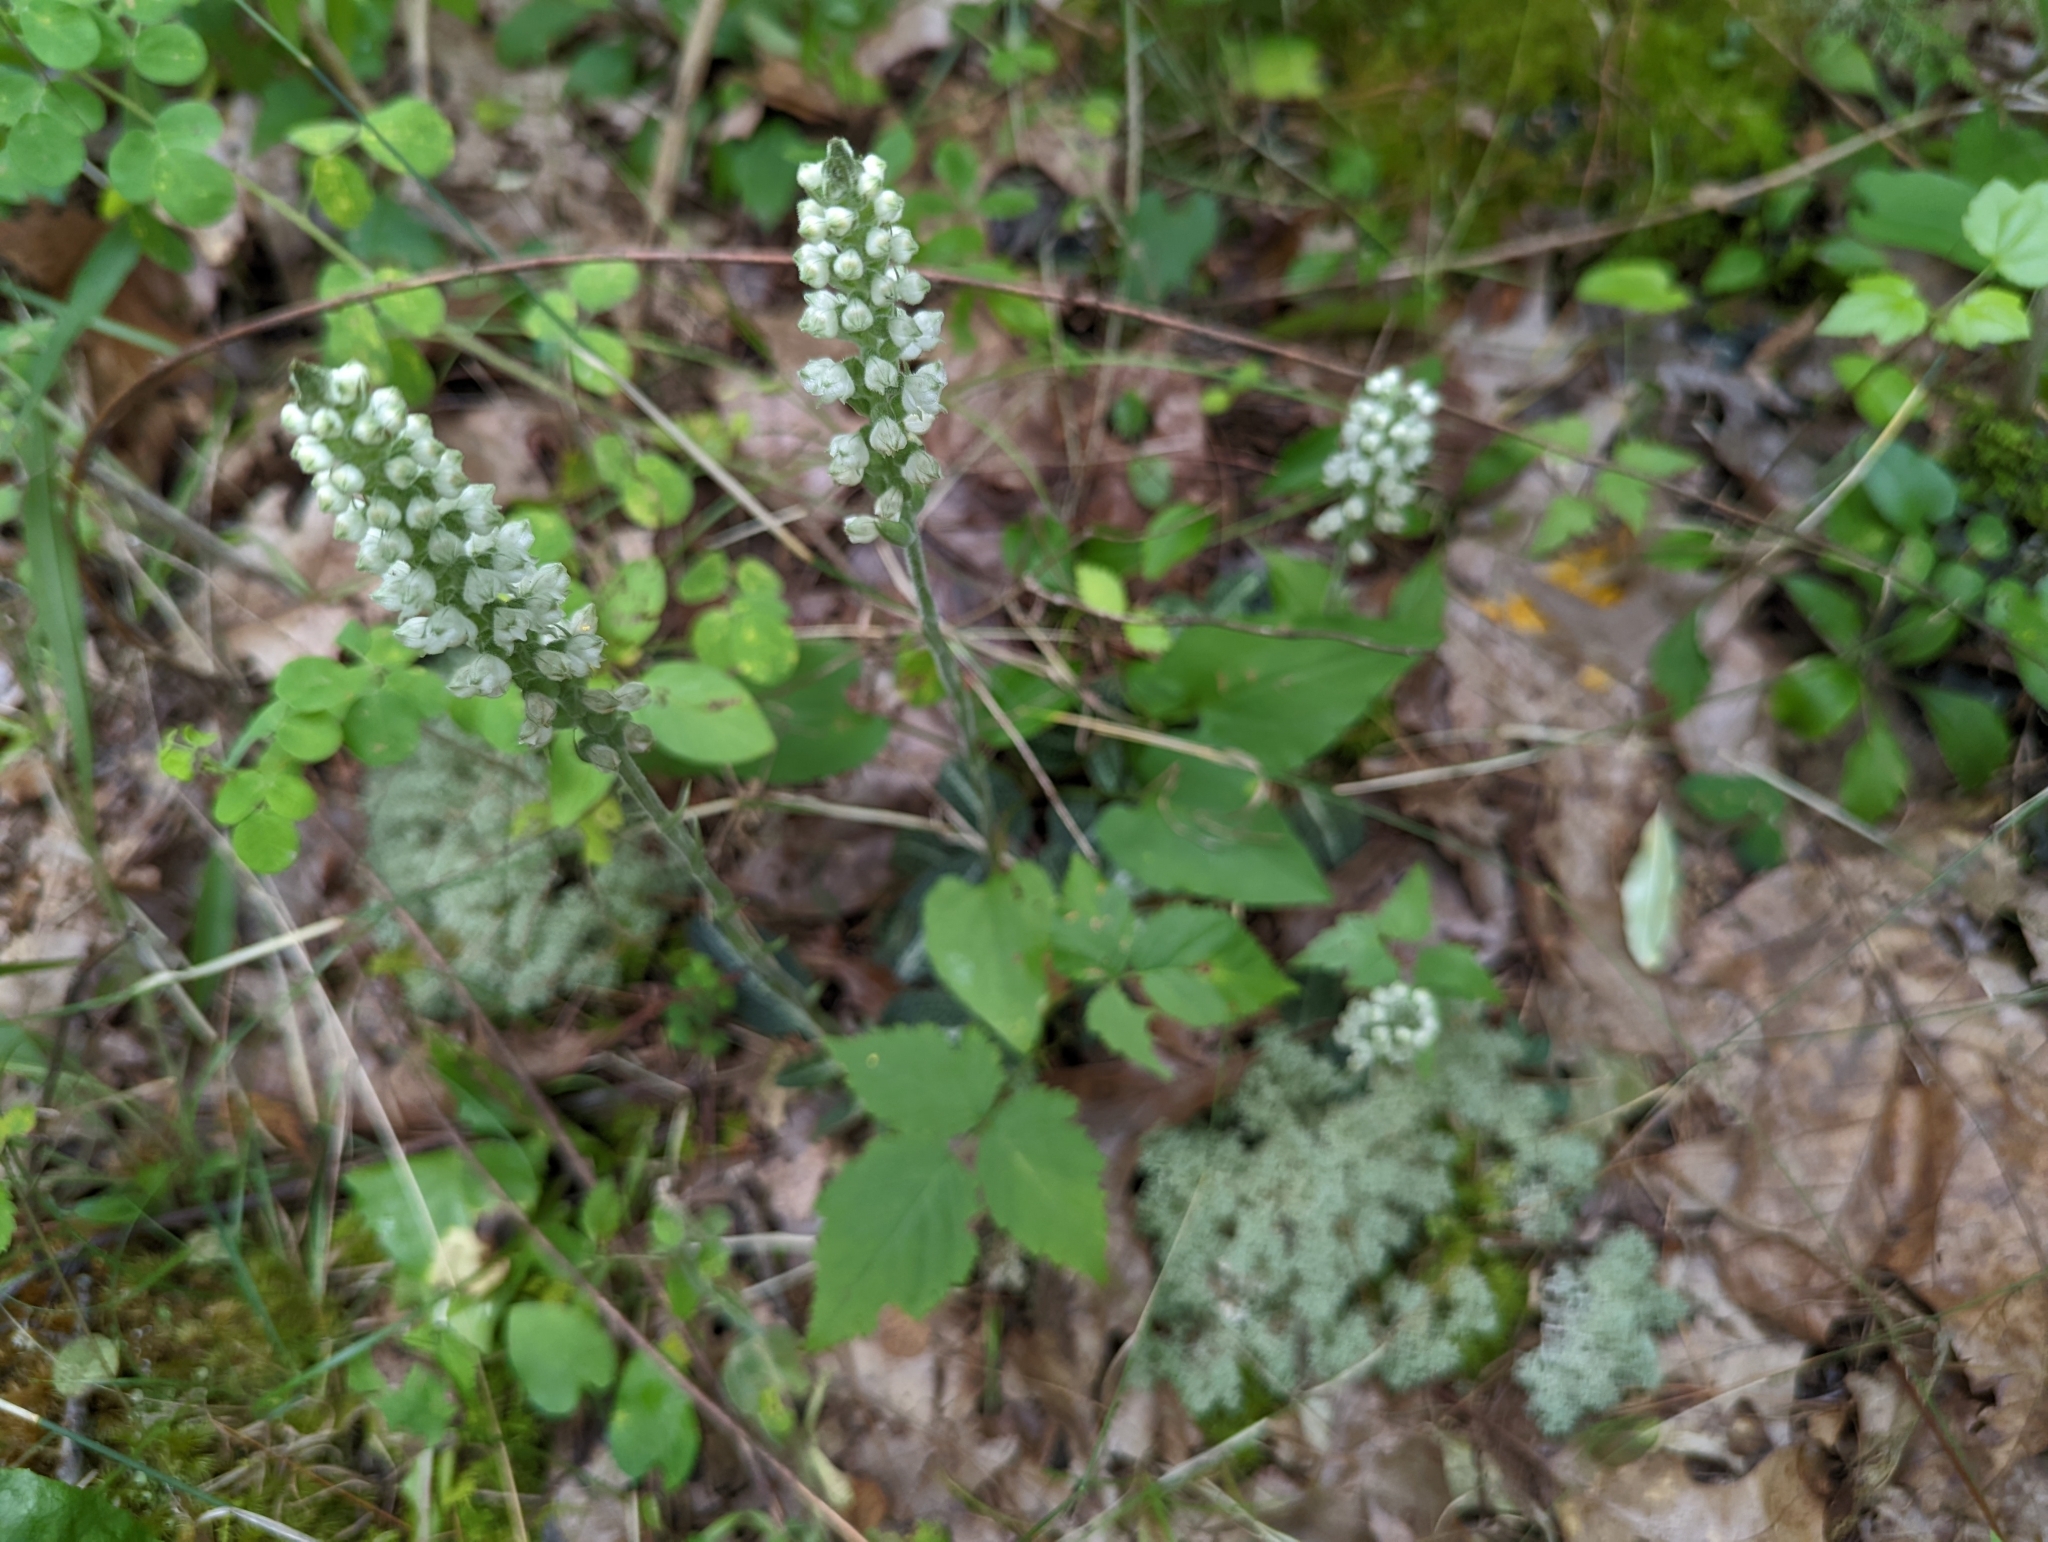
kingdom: Plantae
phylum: Tracheophyta
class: Liliopsida
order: Asparagales
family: Orchidaceae
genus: Goodyera
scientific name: Goodyera pubescens
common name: Downy rattlesnake-plantain
